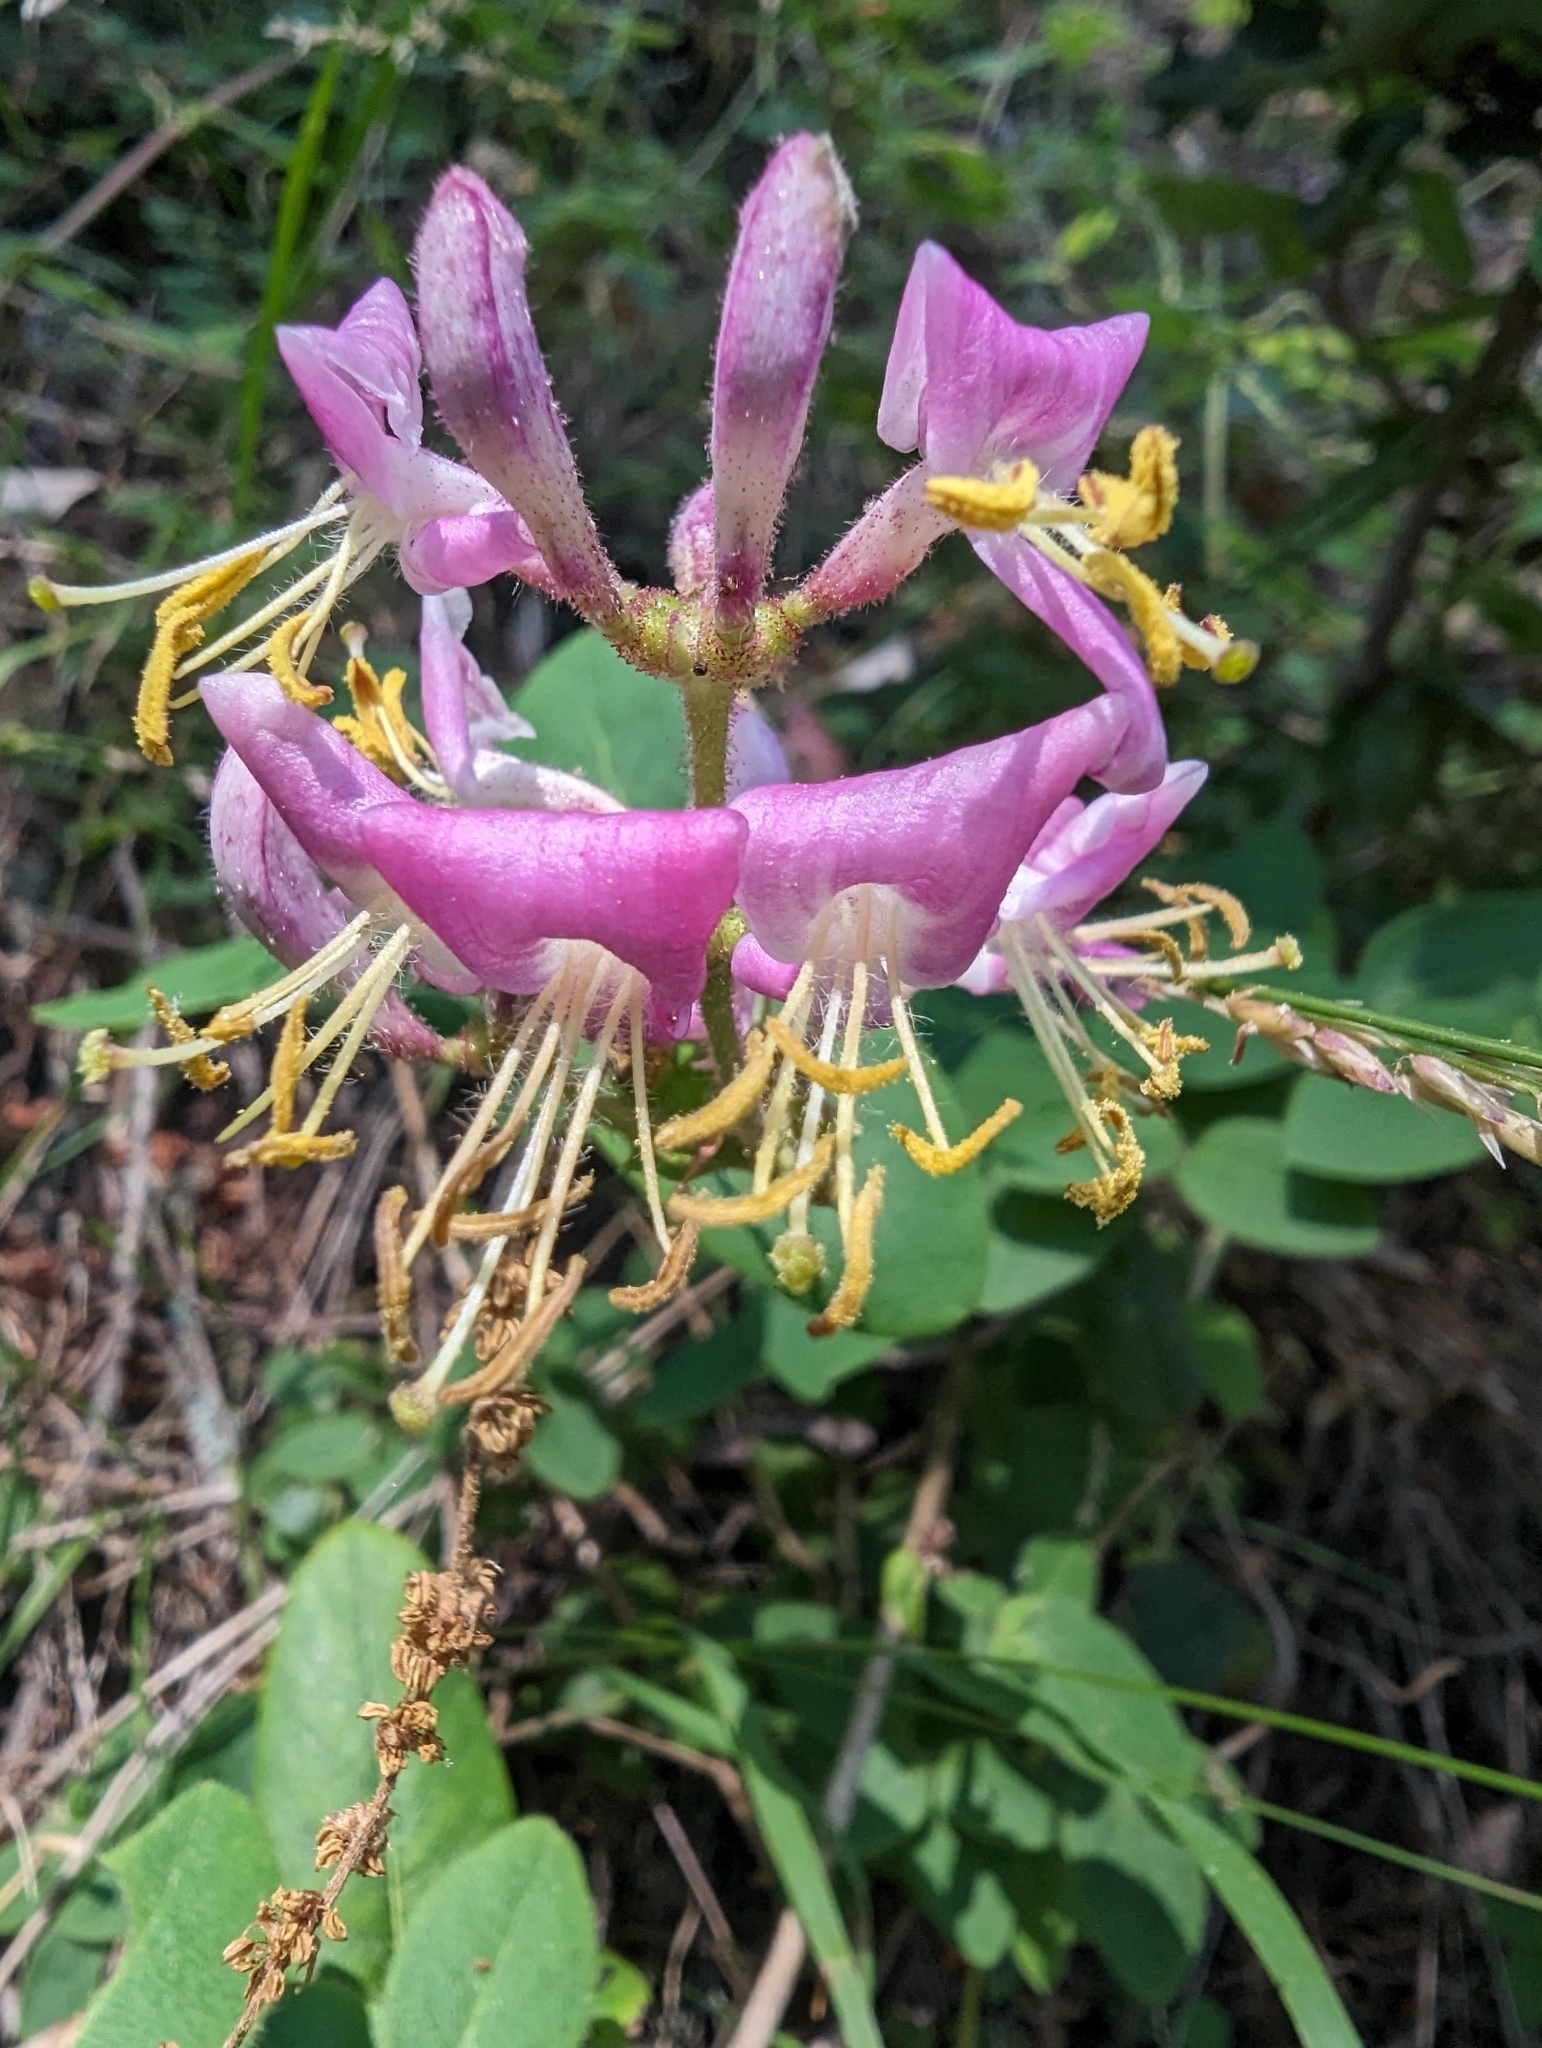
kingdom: Plantae
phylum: Tracheophyta
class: Magnoliopsida
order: Dipsacales
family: Caprifoliaceae
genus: Lonicera
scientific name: Lonicera hispidula
